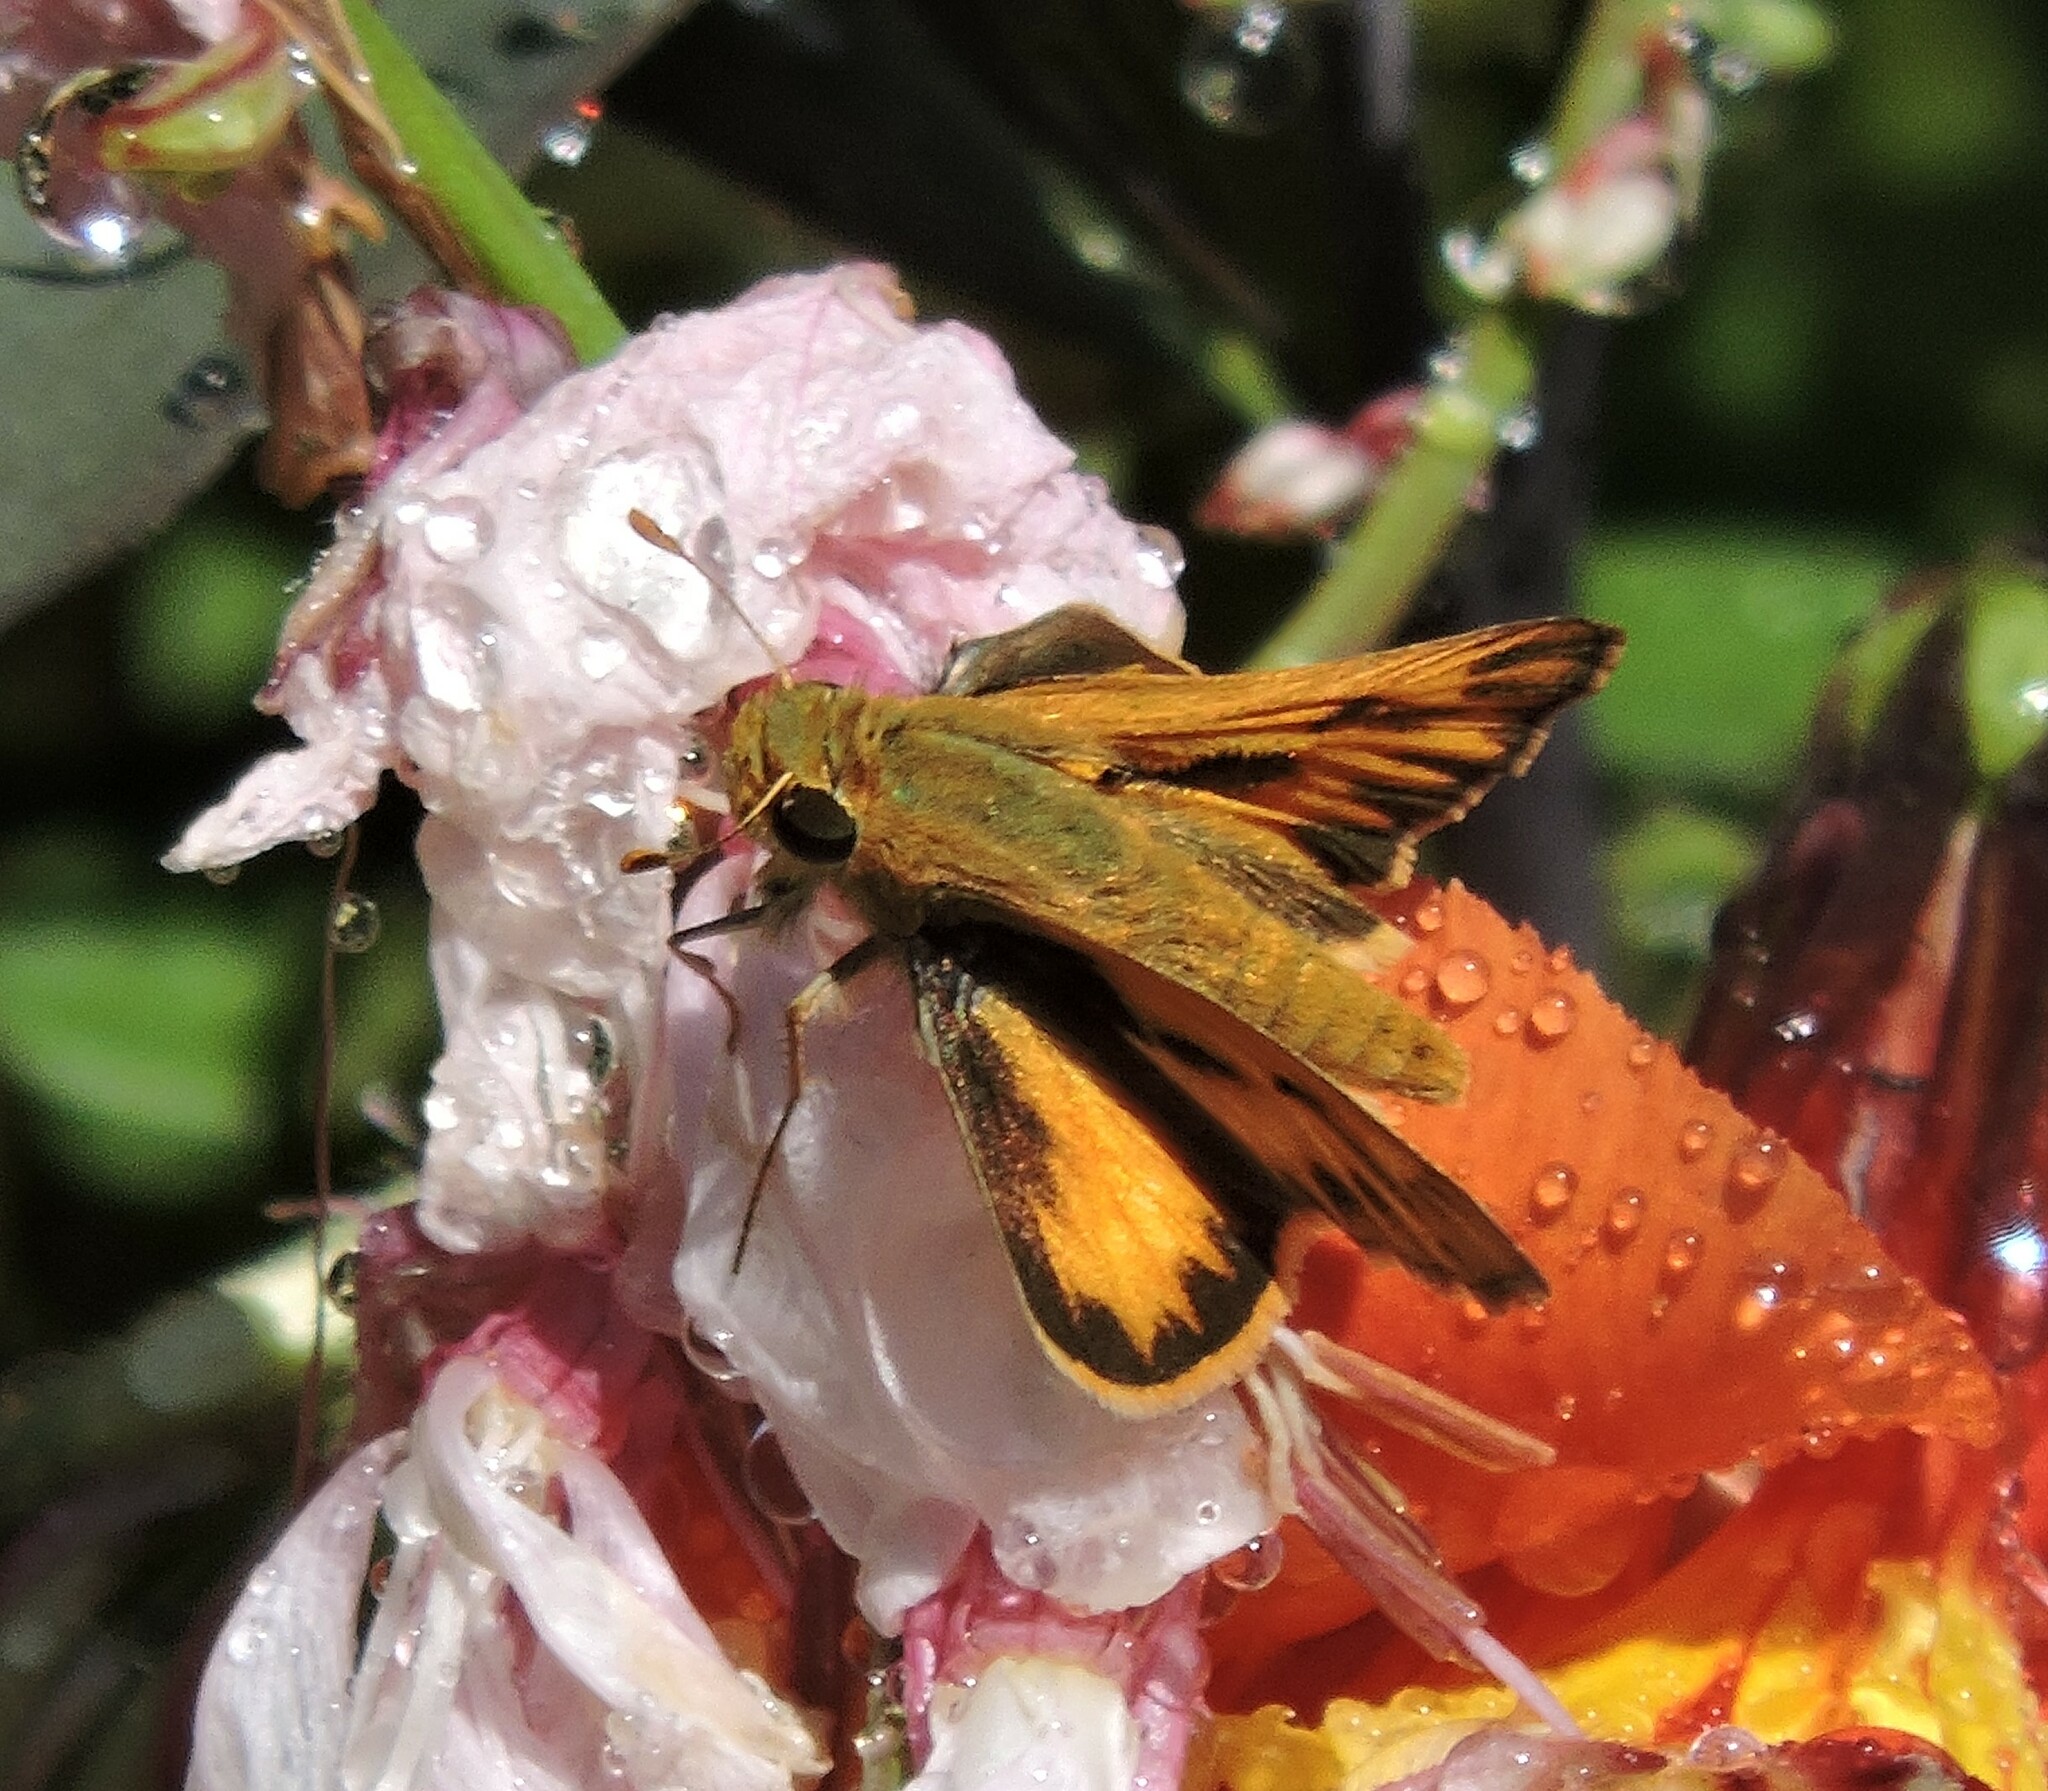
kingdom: Animalia
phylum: Arthropoda
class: Insecta
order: Lepidoptera
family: Hesperiidae
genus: Hylephila
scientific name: Hylephila phyleus
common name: Fiery skipper
